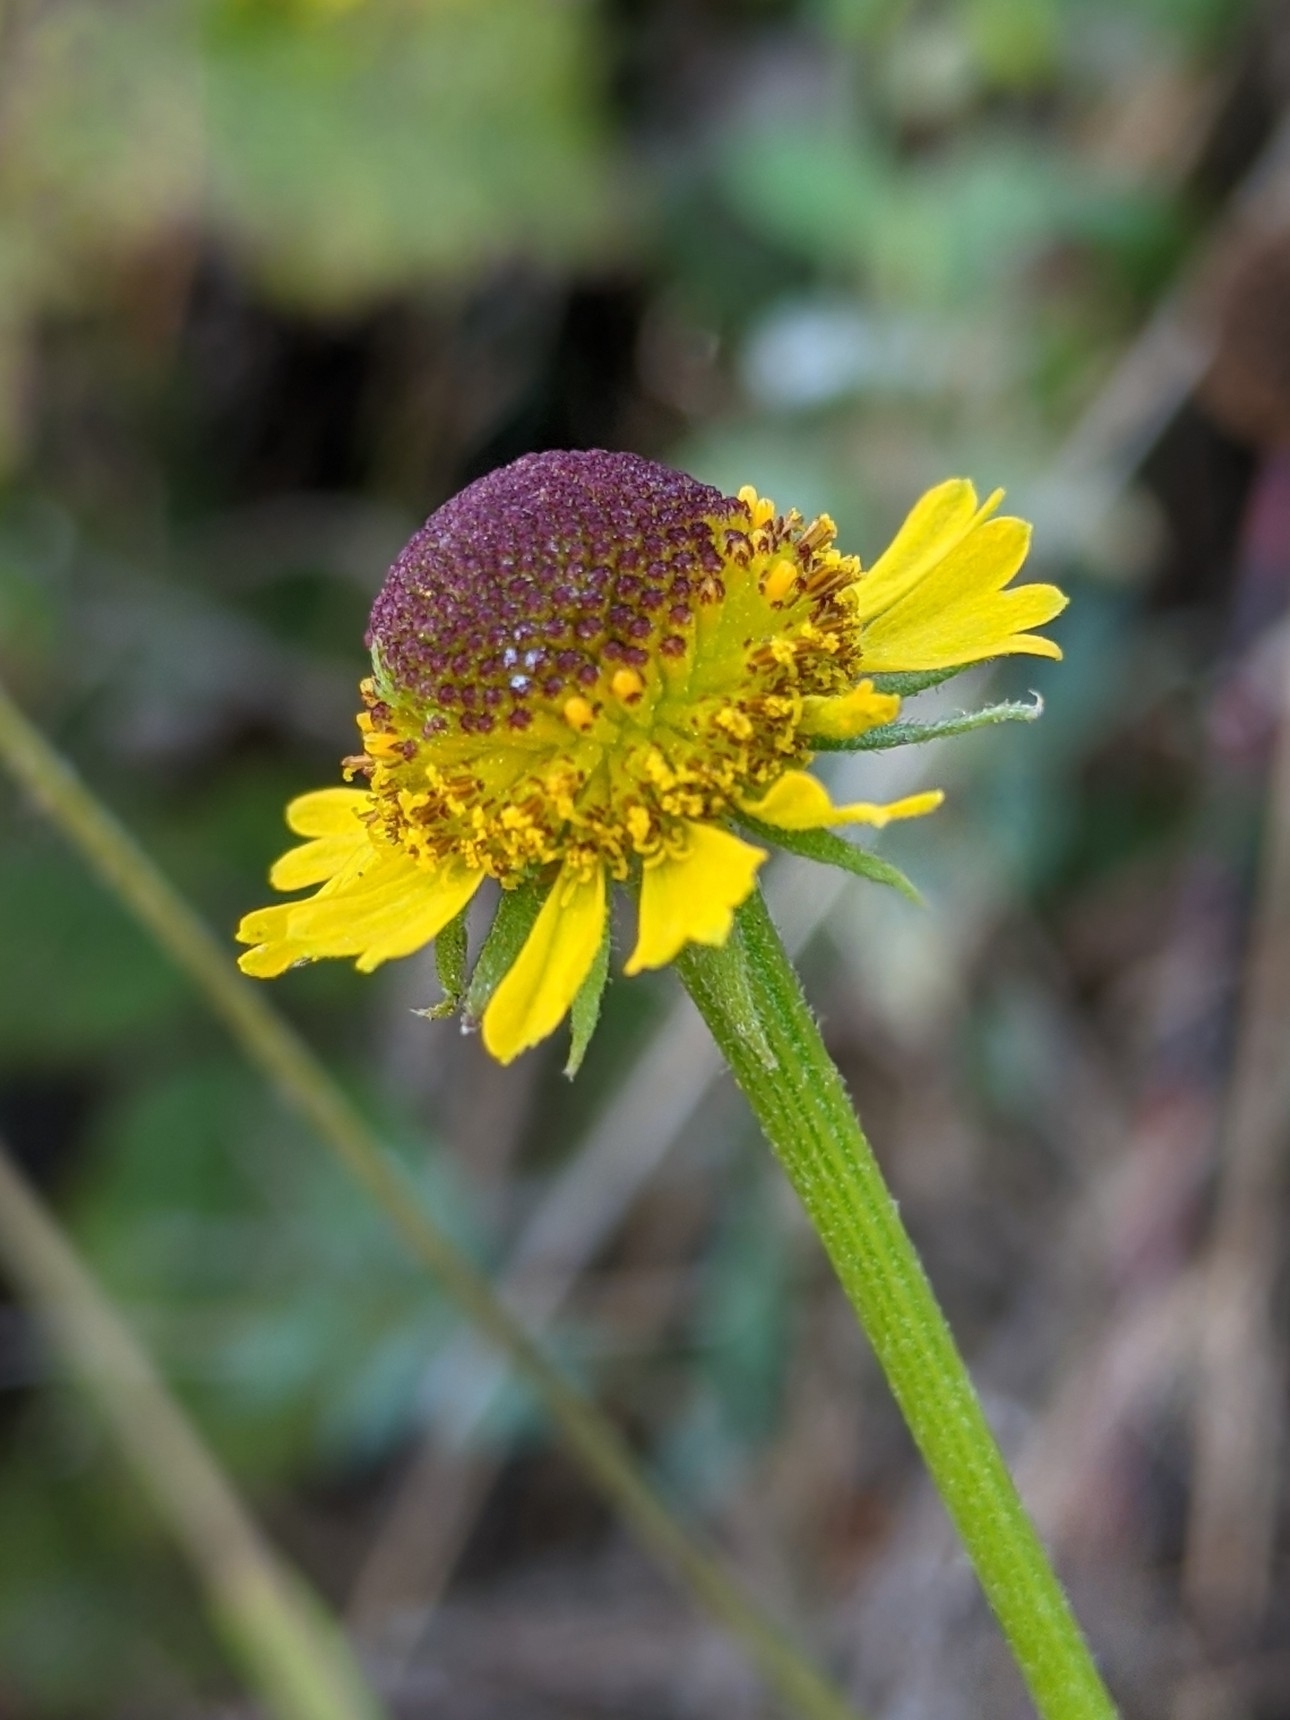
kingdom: Plantae
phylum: Tracheophyta
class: Magnoliopsida
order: Asterales
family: Asteraceae
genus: Helenium
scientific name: Helenium puberulum
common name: Sneezewort
